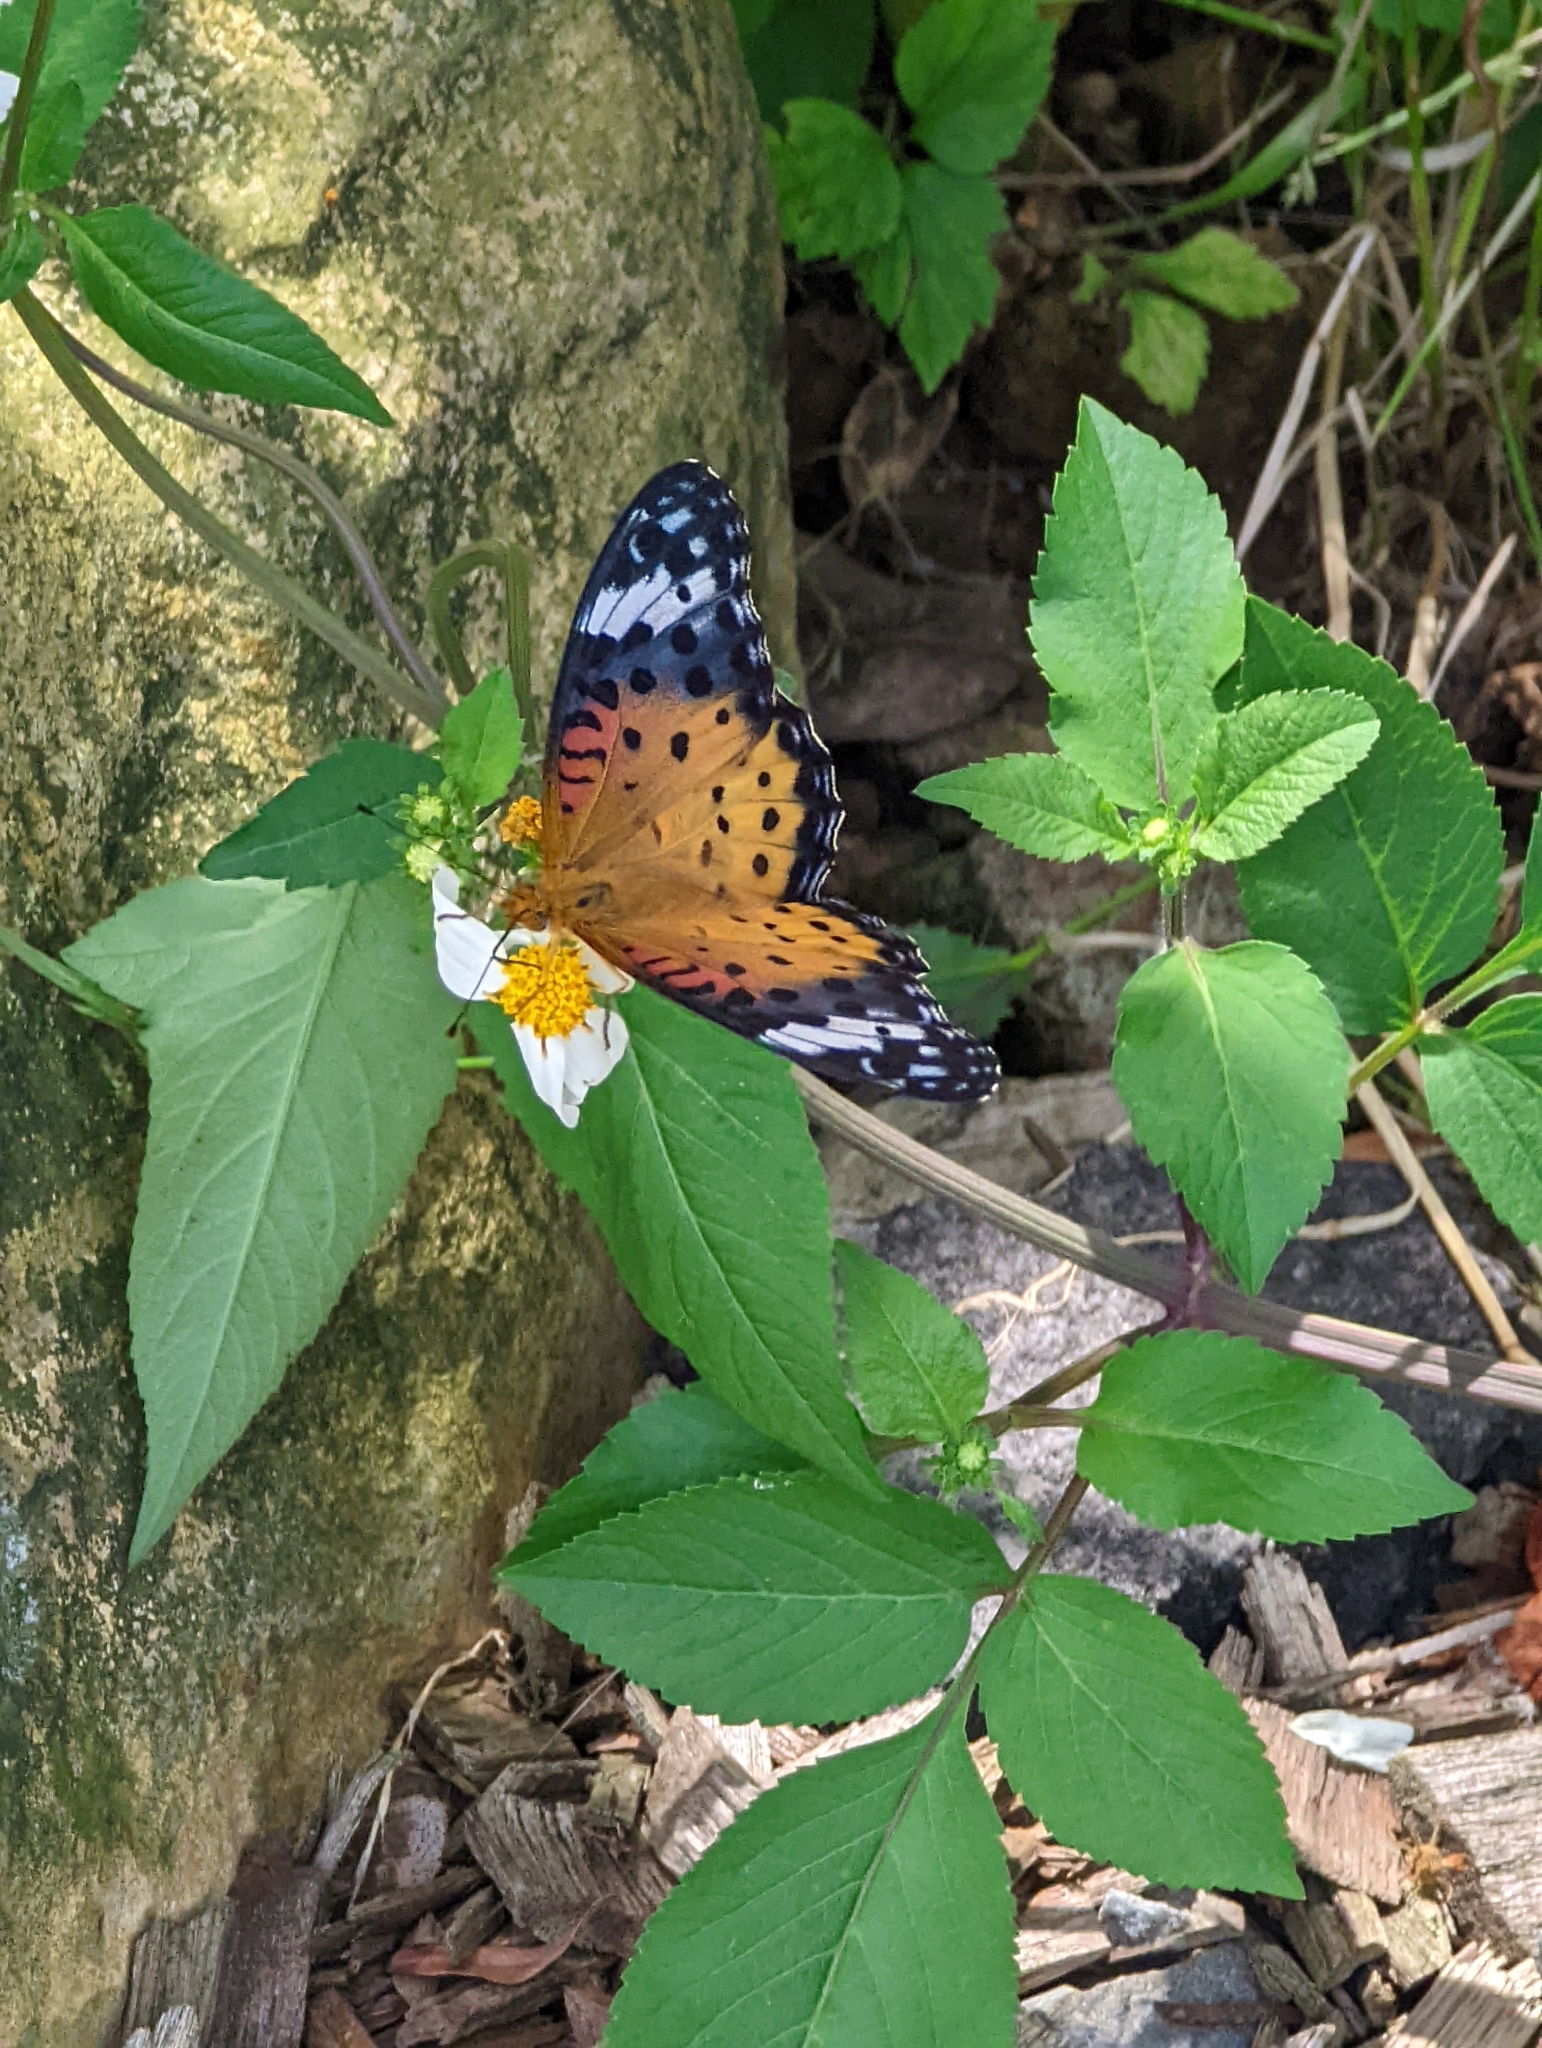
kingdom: Animalia
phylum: Arthropoda
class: Insecta
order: Lepidoptera
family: Nymphalidae
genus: Argynnis
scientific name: Argynnis hyperbius
